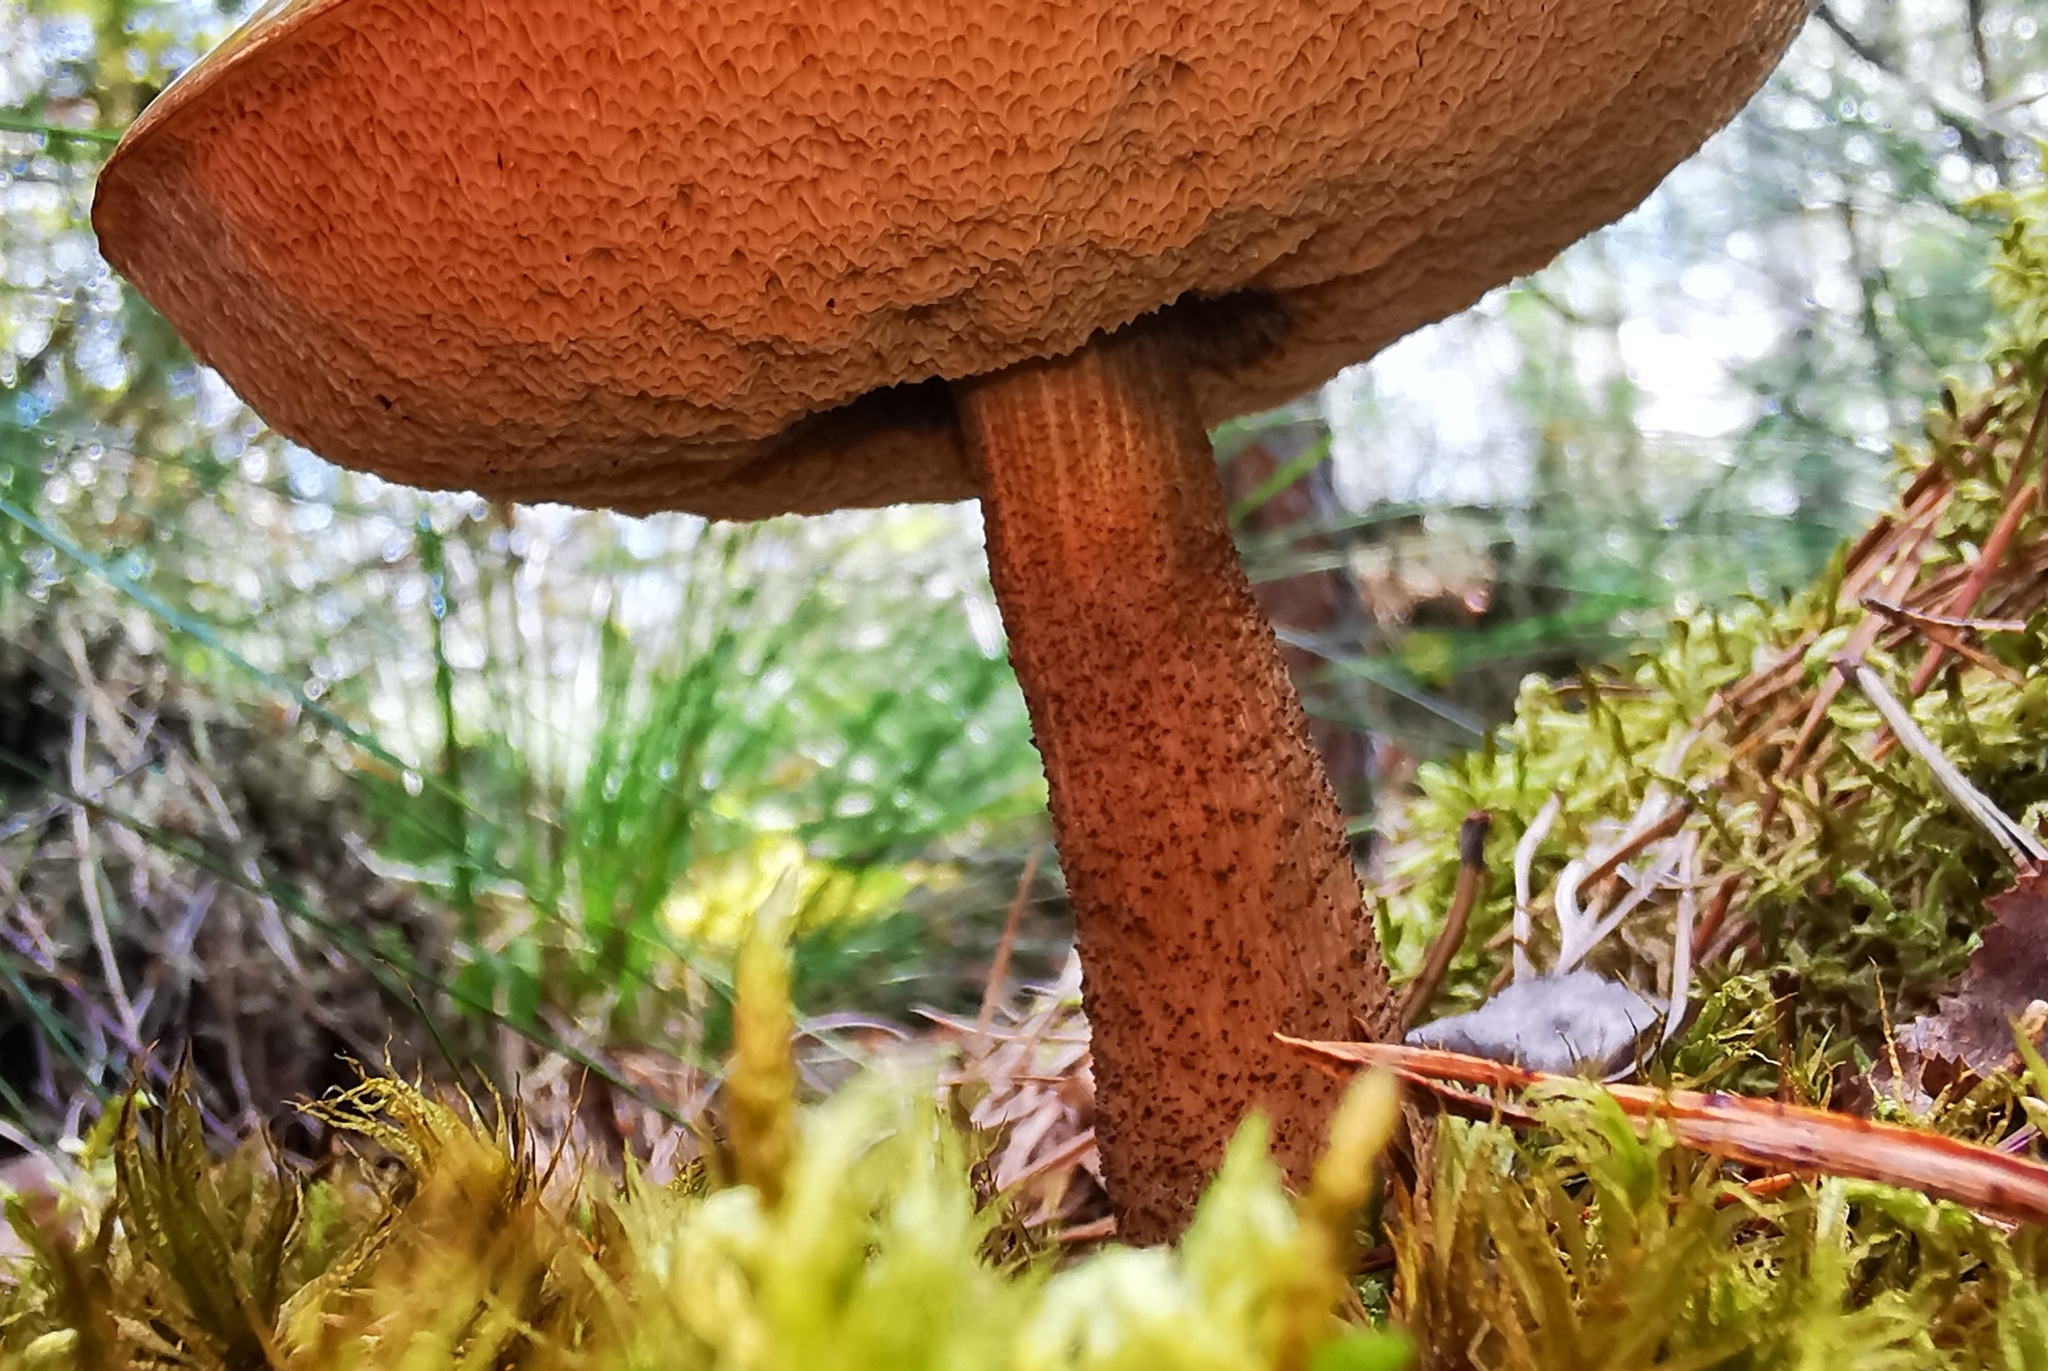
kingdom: Fungi
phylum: Basidiomycota
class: Agaricomycetes
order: Boletales
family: Boletaceae
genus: Leccinum
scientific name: Leccinum scabrum
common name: Blushing bolete
